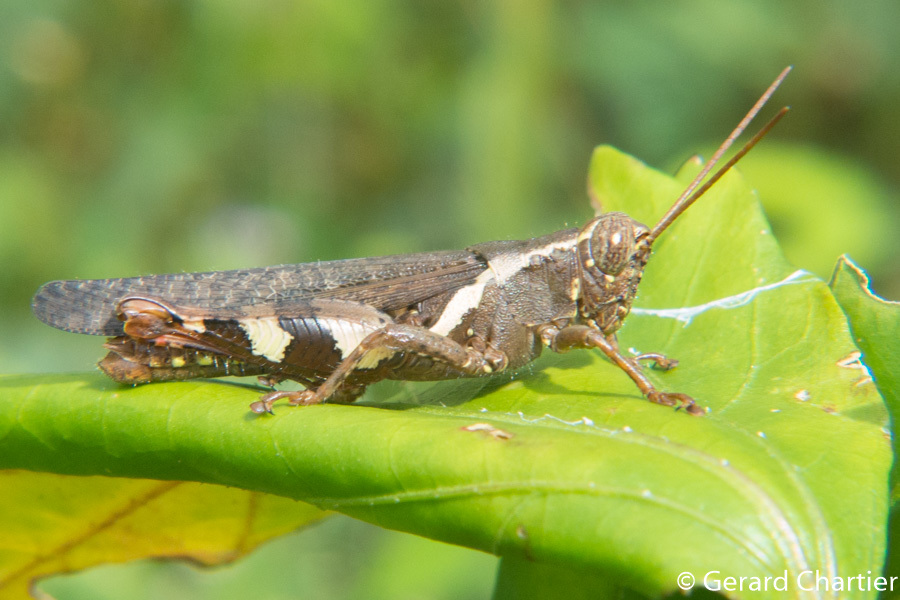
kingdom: Animalia
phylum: Arthropoda
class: Insecta
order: Orthoptera
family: Acrididae
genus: Xenocatantops
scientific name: Xenocatantops humile
